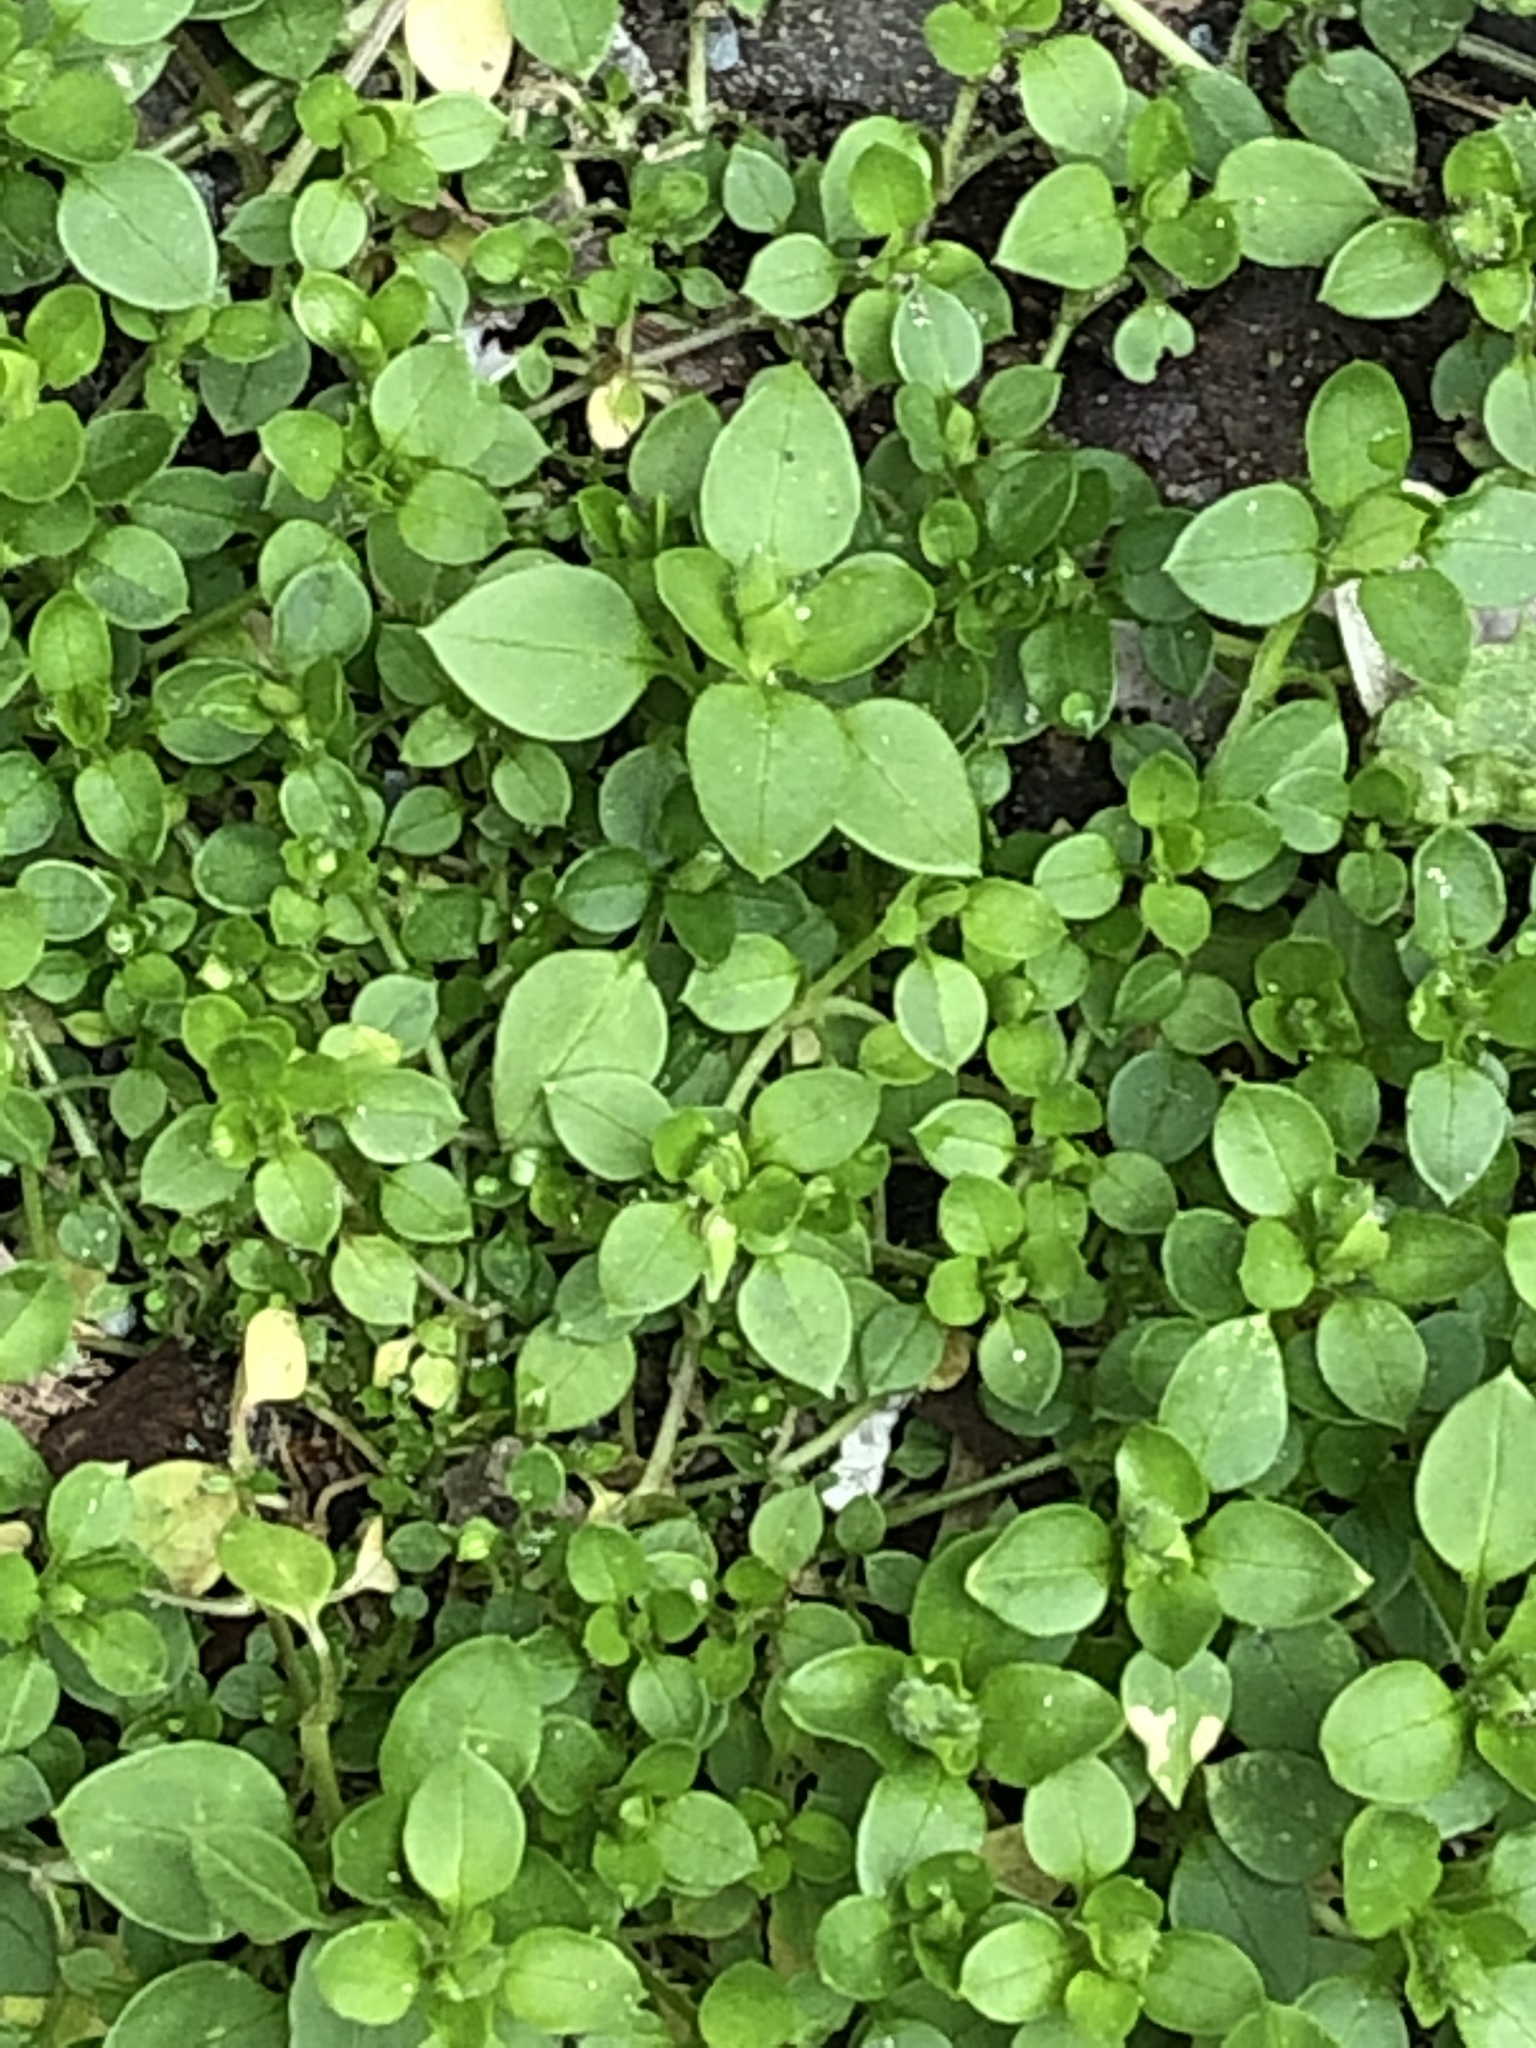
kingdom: Plantae
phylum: Tracheophyta
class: Magnoliopsida
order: Caryophyllales
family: Caryophyllaceae
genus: Stellaria
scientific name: Stellaria media
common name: Common chickweed
